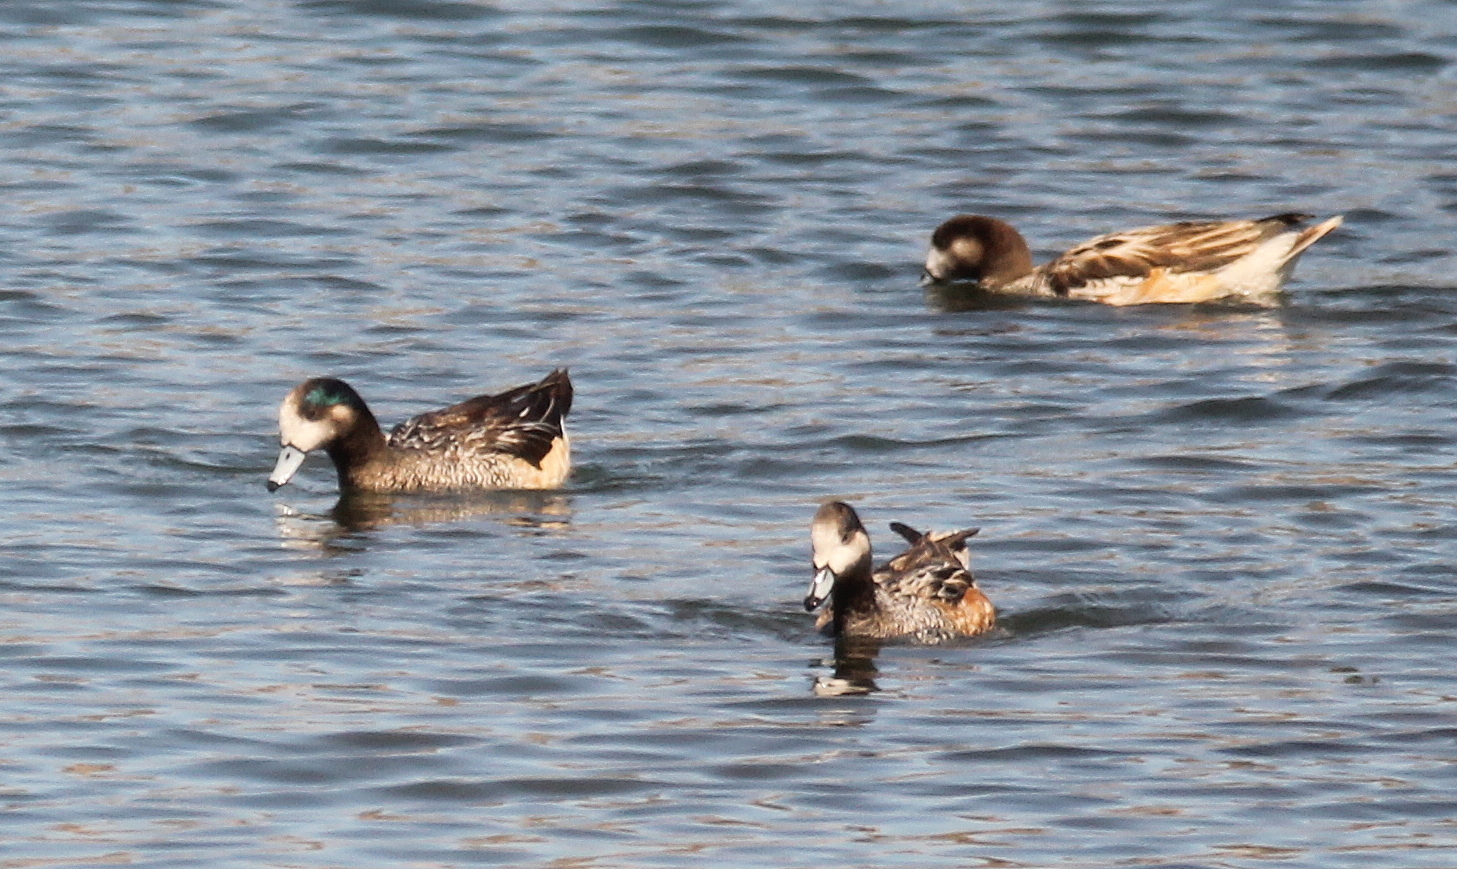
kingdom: Animalia
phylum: Chordata
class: Aves
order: Anseriformes
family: Anatidae
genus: Mareca
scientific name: Mareca sibilatrix
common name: Chiloe wigeon
